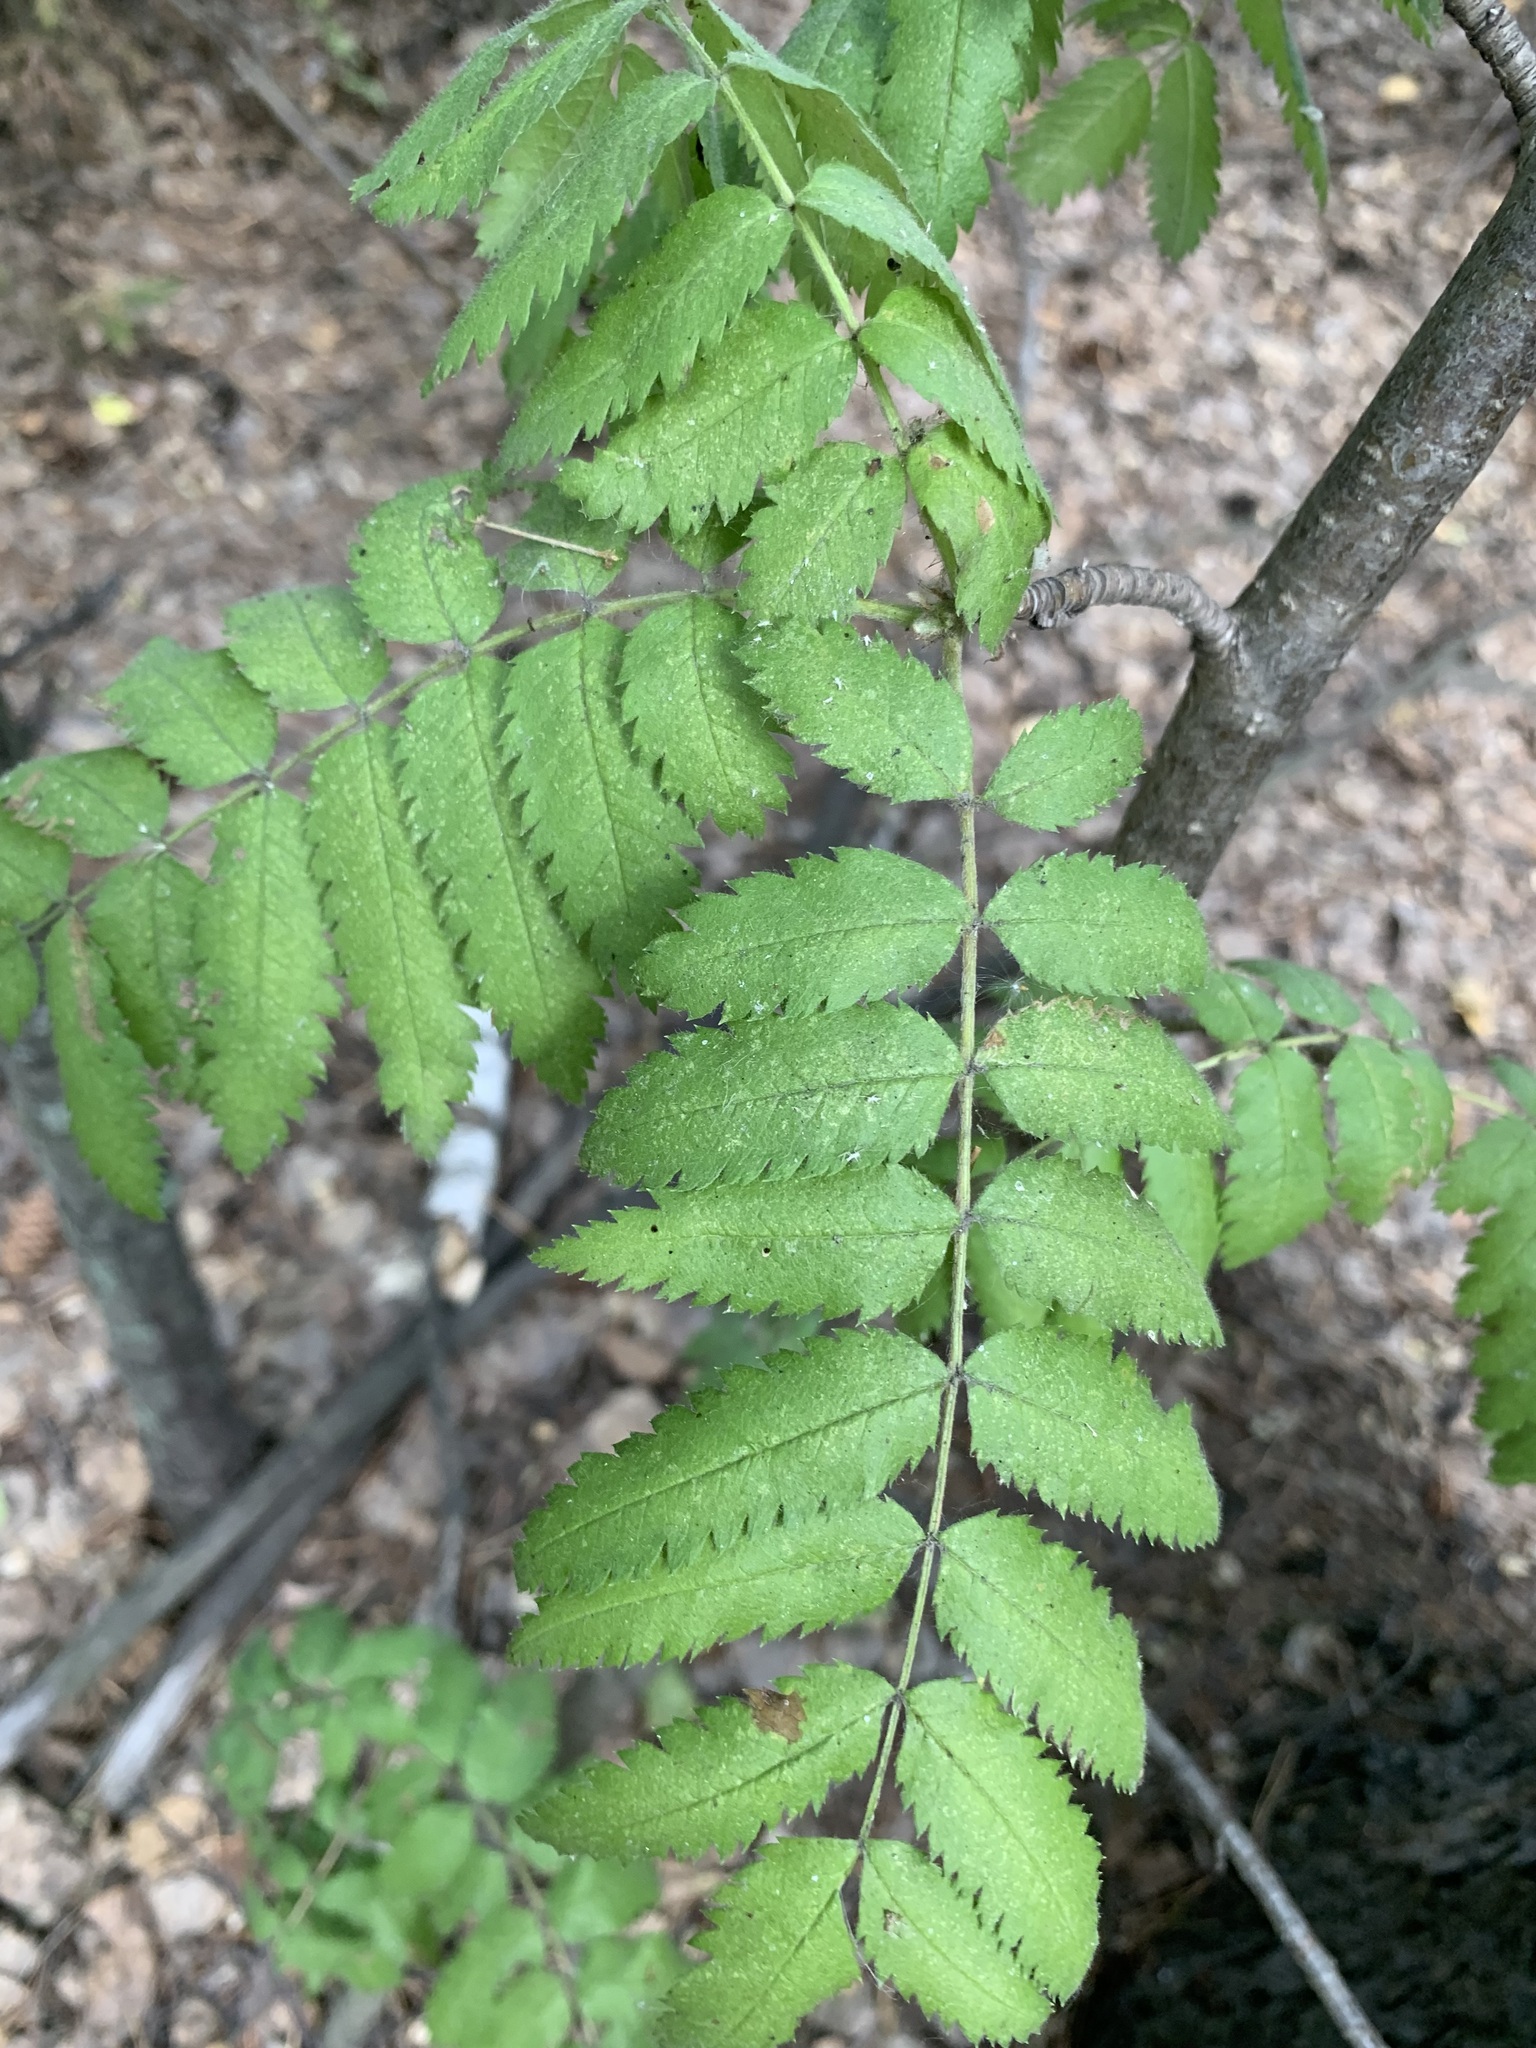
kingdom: Plantae
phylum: Tracheophyta
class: Magnoliopsida
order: Rosales
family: Rosaceae
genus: Sorbus
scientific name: Sorbus aucuparia
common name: Rowan
